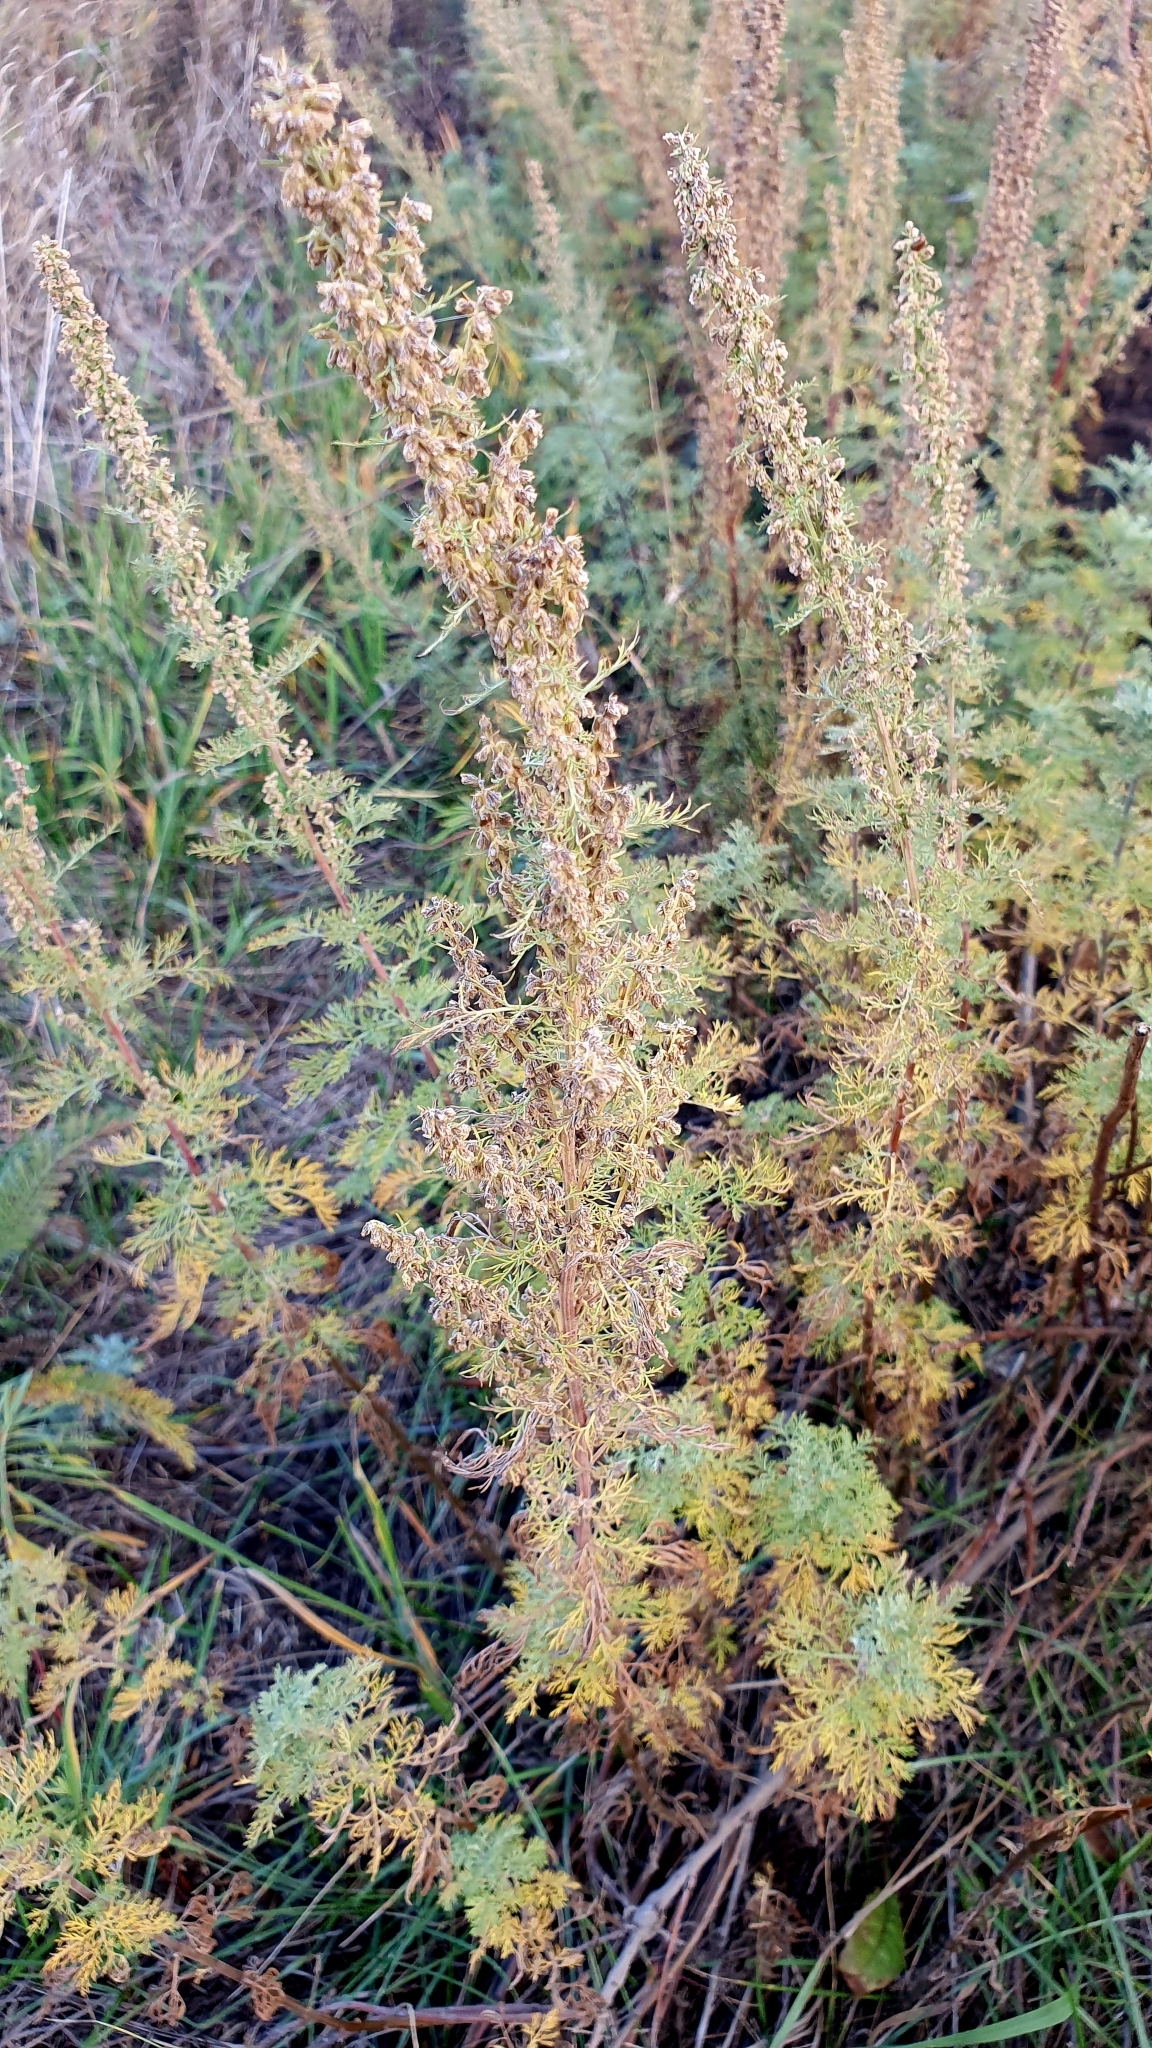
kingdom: Plantae
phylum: Tracheophyta
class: Magnoliopsida
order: Asterales
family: Asteraceae
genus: Artemisia
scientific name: Artemisia abrotanum
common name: Southernwood
